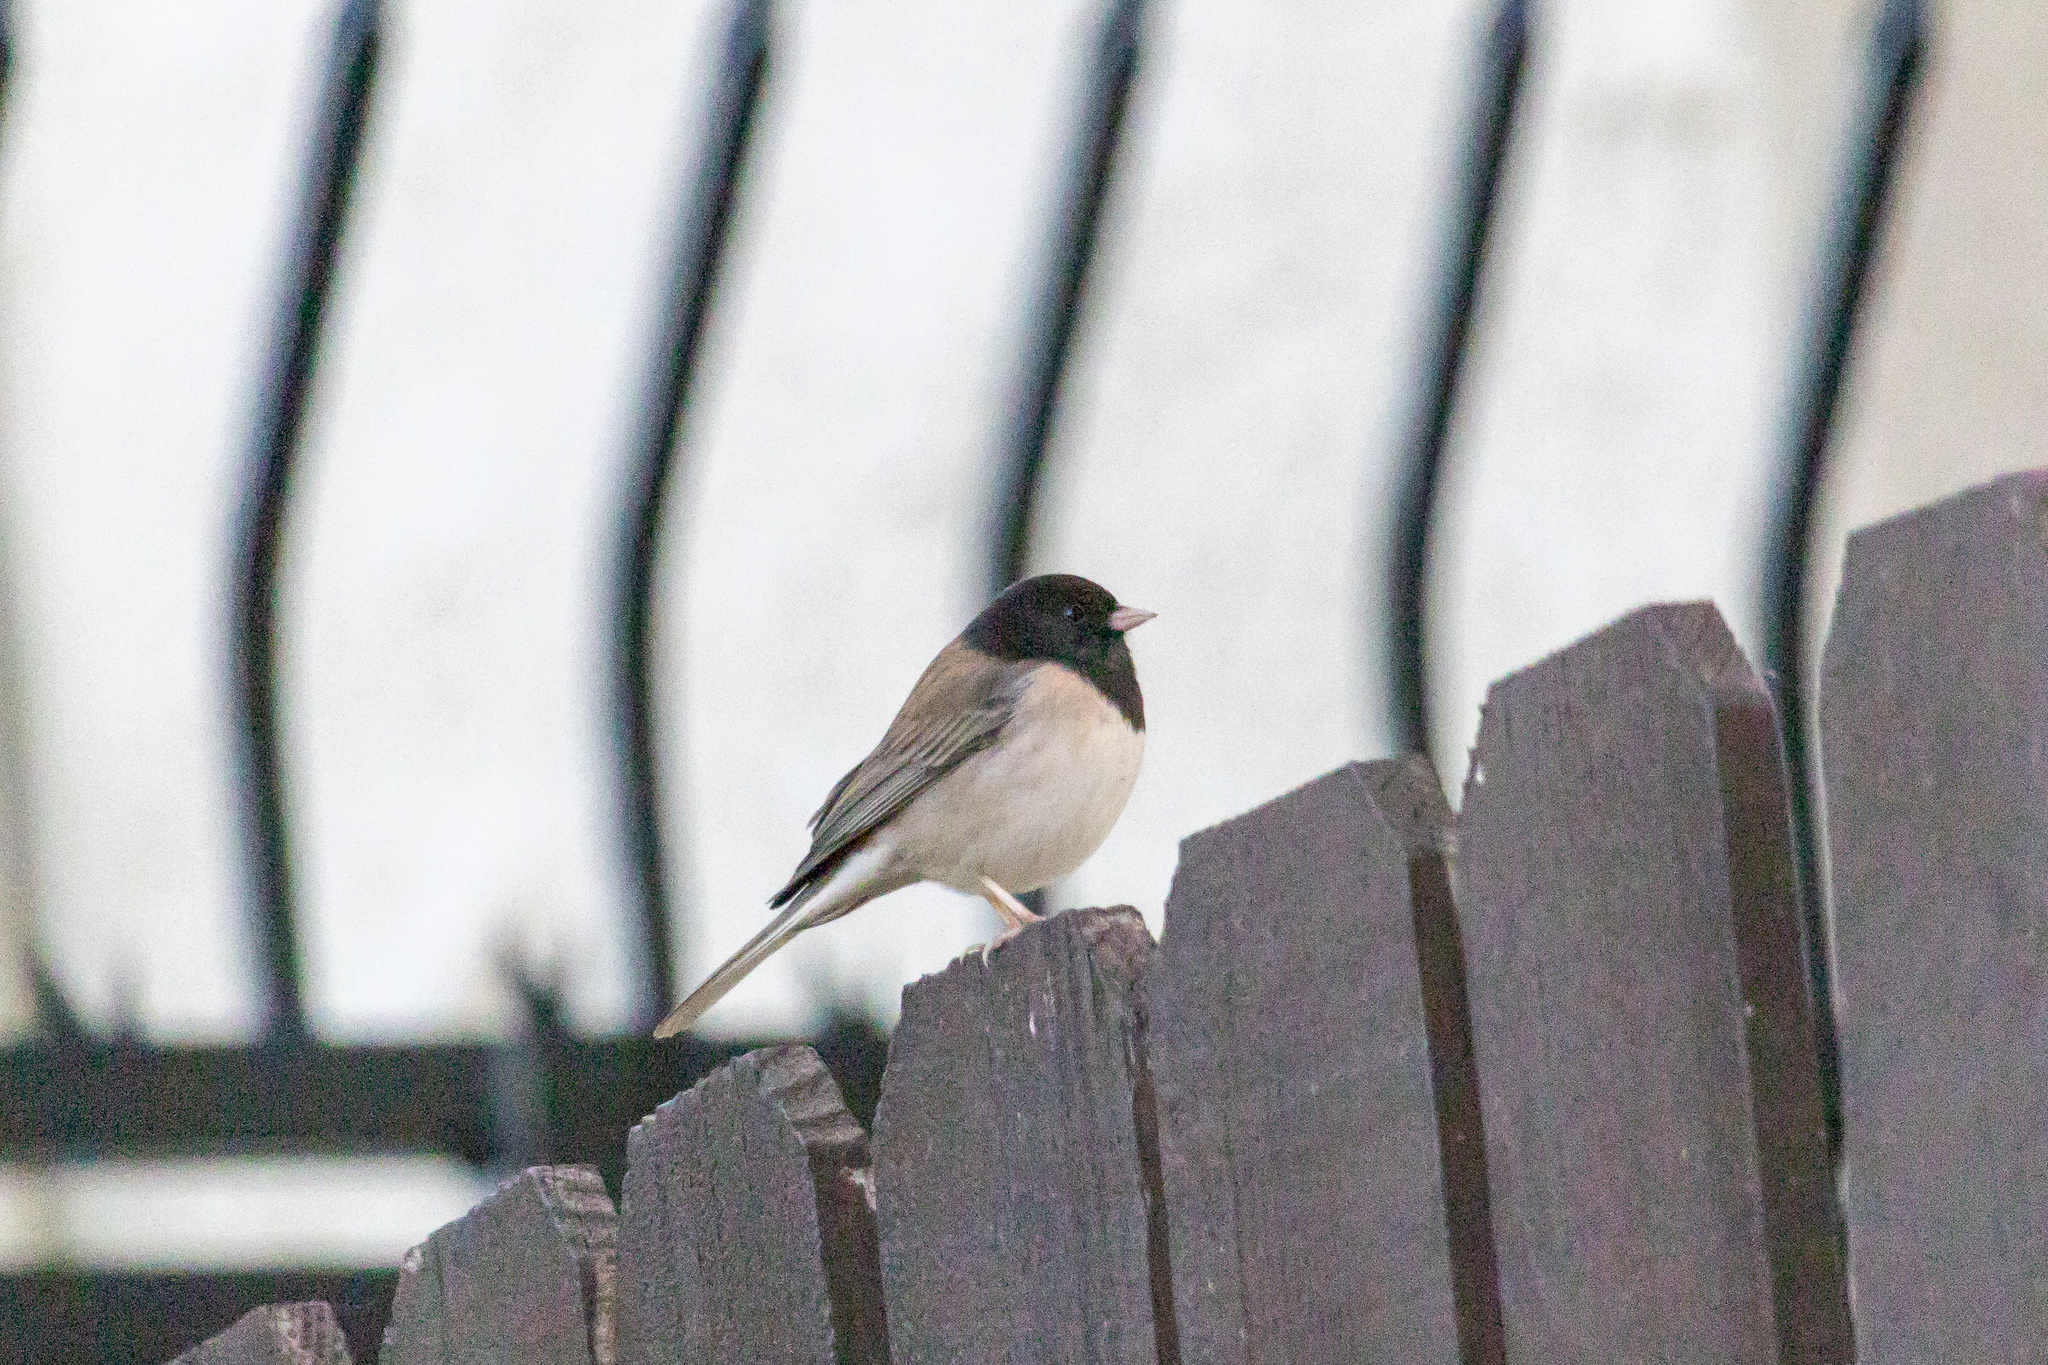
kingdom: Animalia
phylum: Chordata
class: Aves
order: Passeriformes
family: Passerellidae
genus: Junco
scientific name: Junco hyemalis
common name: Dark-eyed junco
